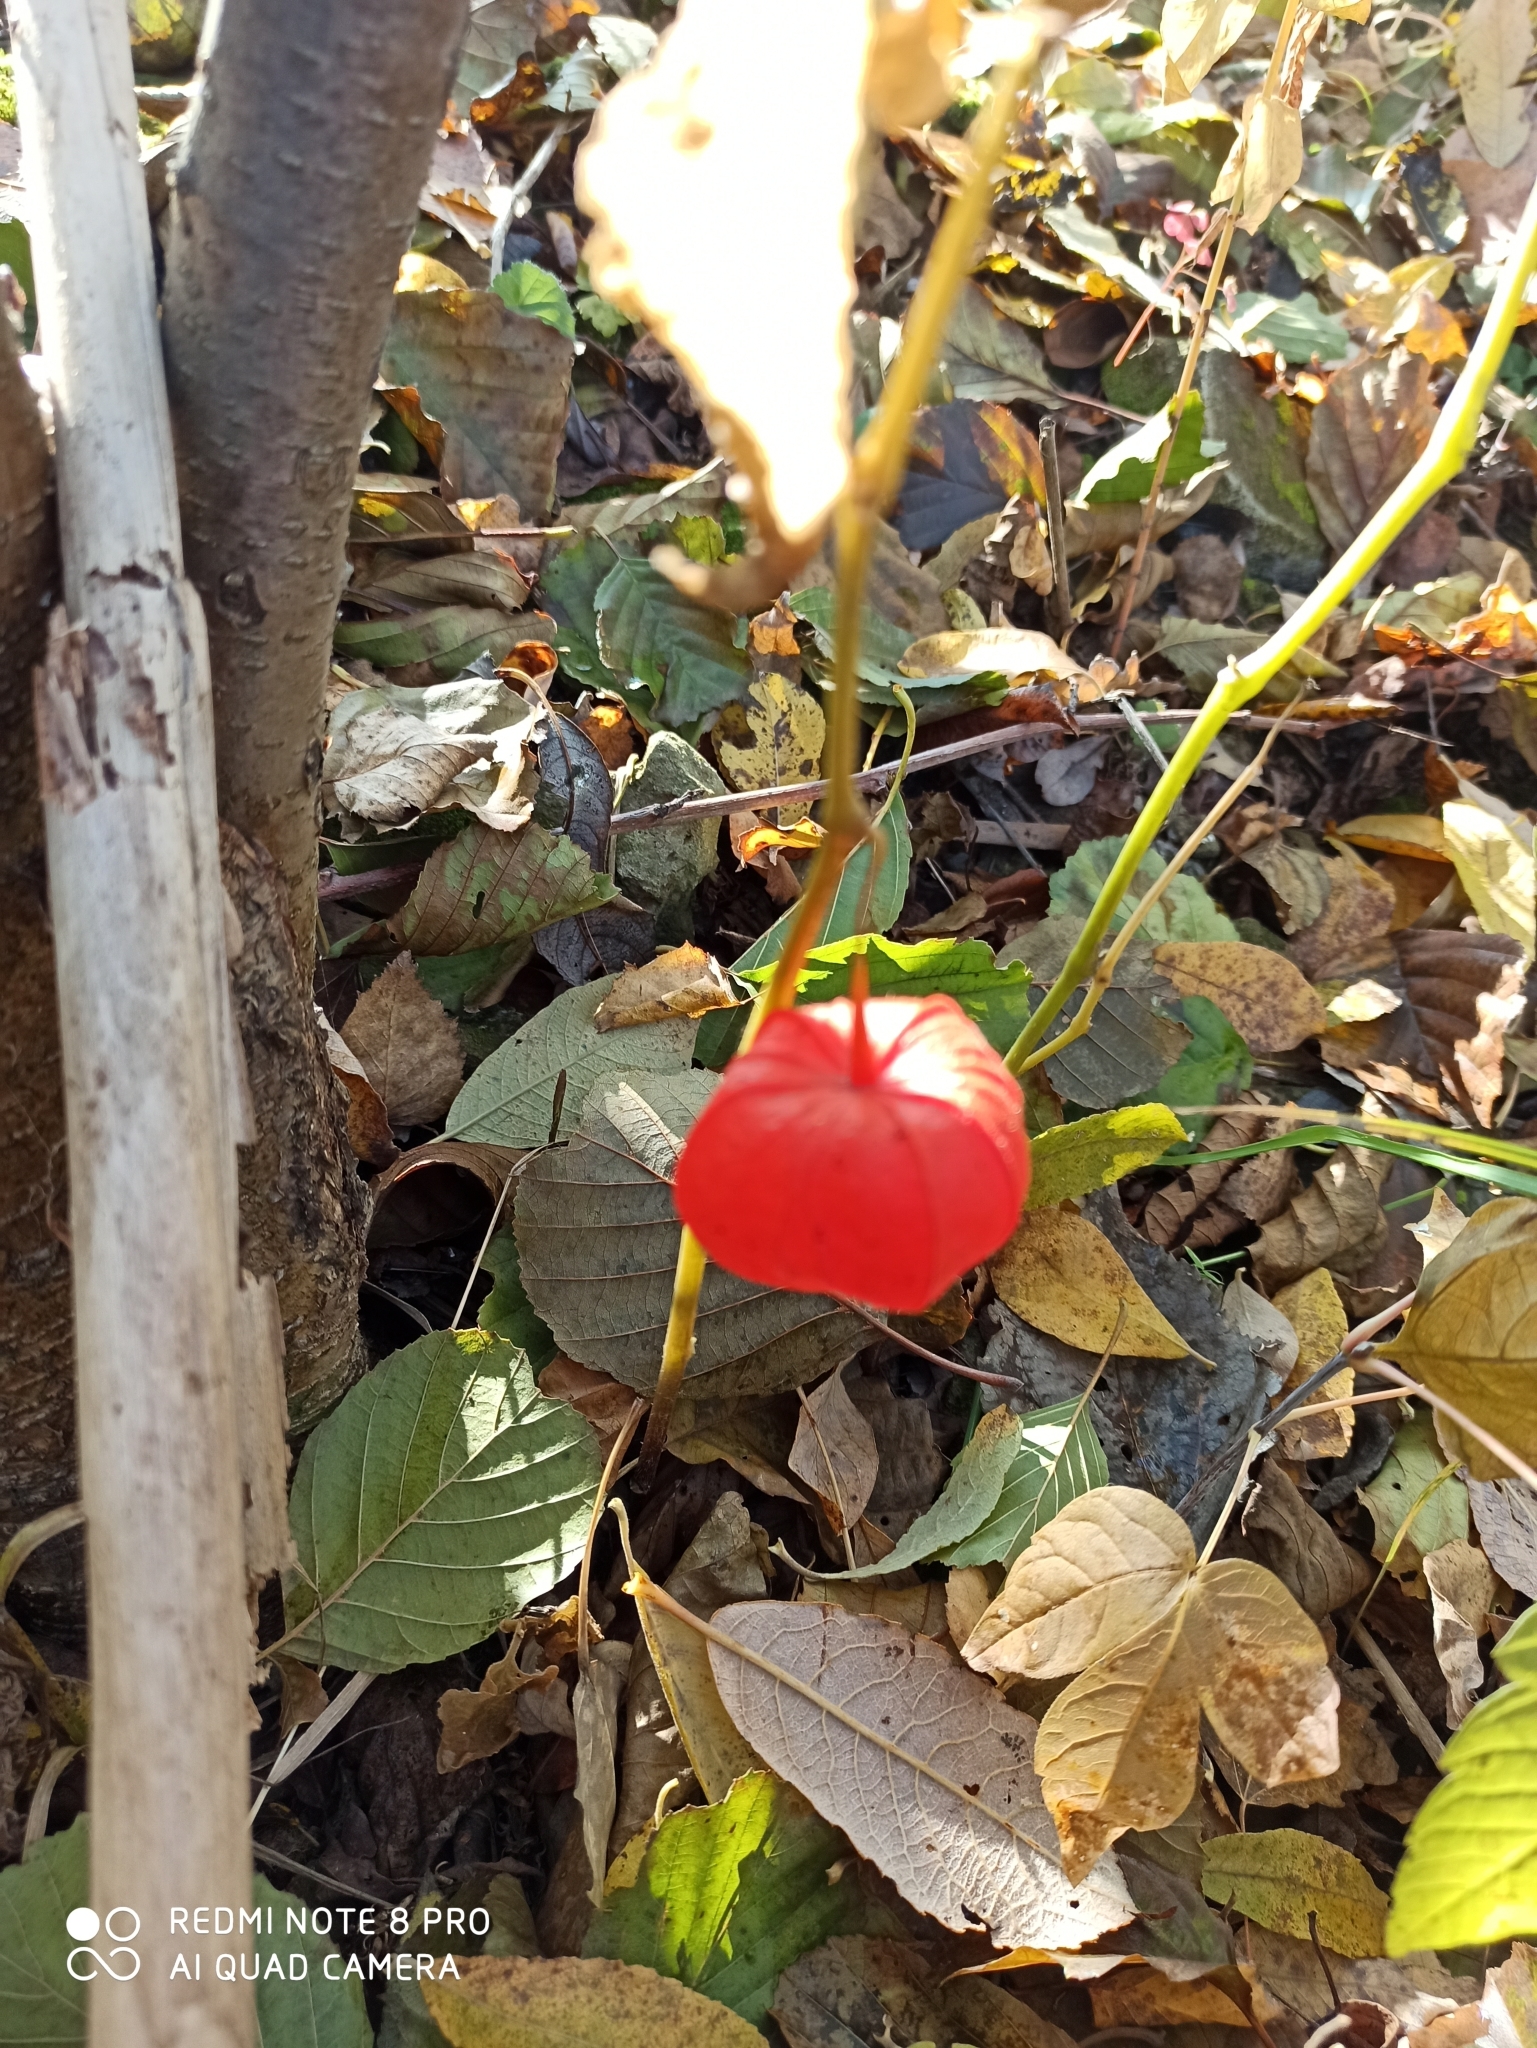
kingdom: Plantae
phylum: Tracheophyta
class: Magnoliopsida
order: Solanales
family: Solanaceae
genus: Alkekengi
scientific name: Alkekengi officinarum
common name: Japanese-lantern
